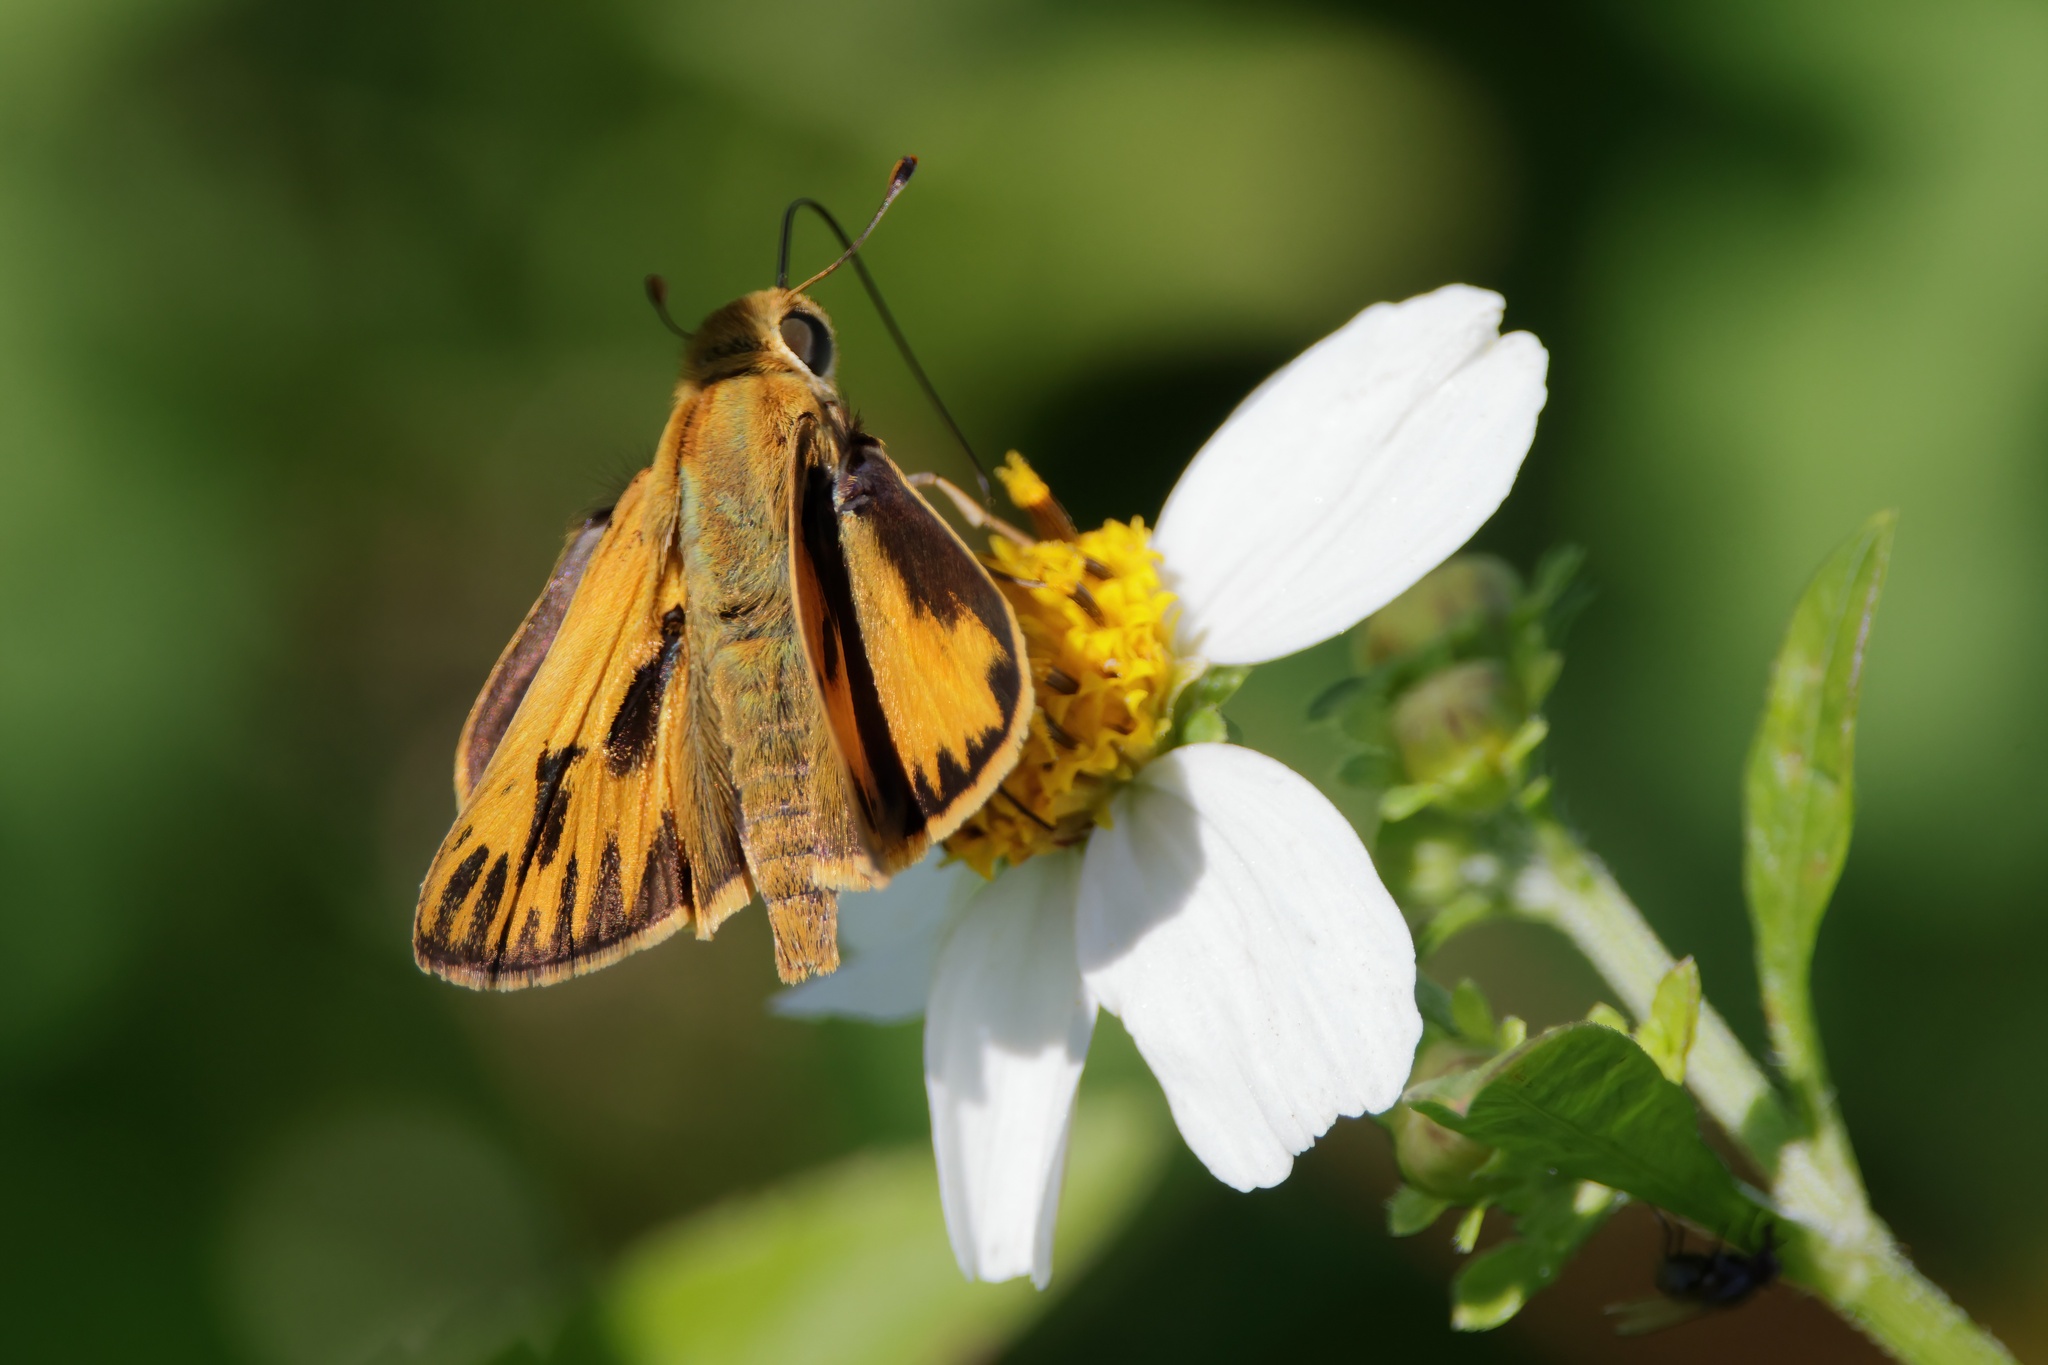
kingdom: Animalia
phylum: Arthropoda
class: Insecta
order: Lepidoptera
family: Hesperiidae
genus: Hylephila
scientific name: Hylephila phyleus
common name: Fiery skipper
